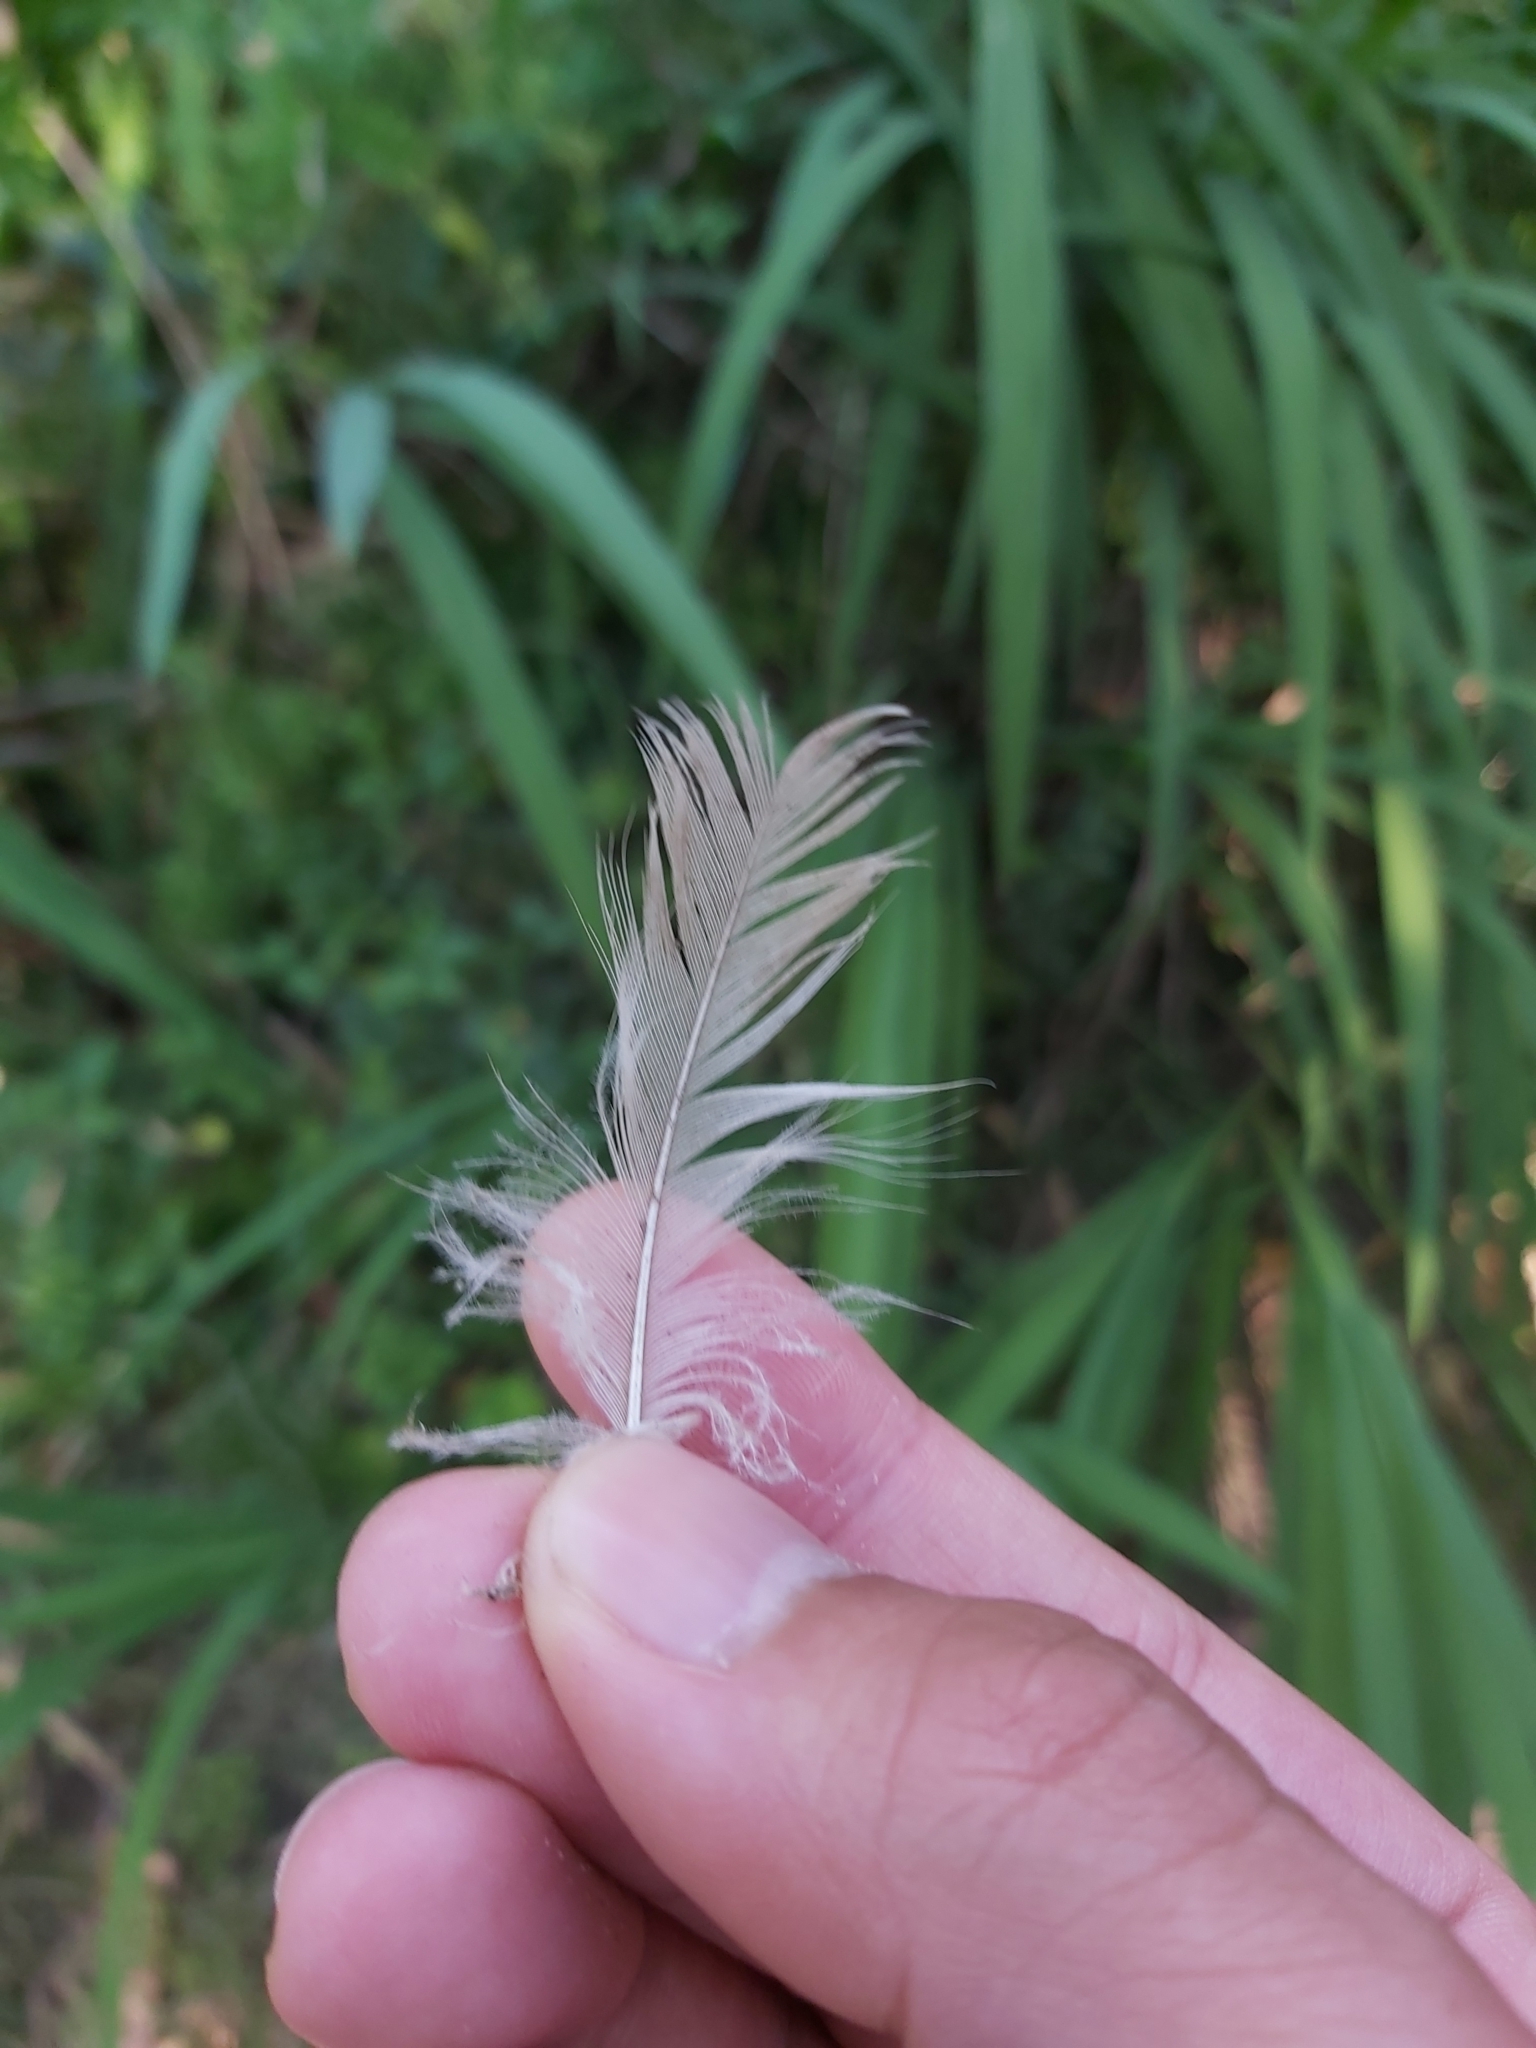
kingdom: Animalia
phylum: Chordata
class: Aves
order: Psittaciformes
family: Psittacidae
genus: Cacatua
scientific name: Cacatua galerita
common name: Sulphur-crested cockatoo
